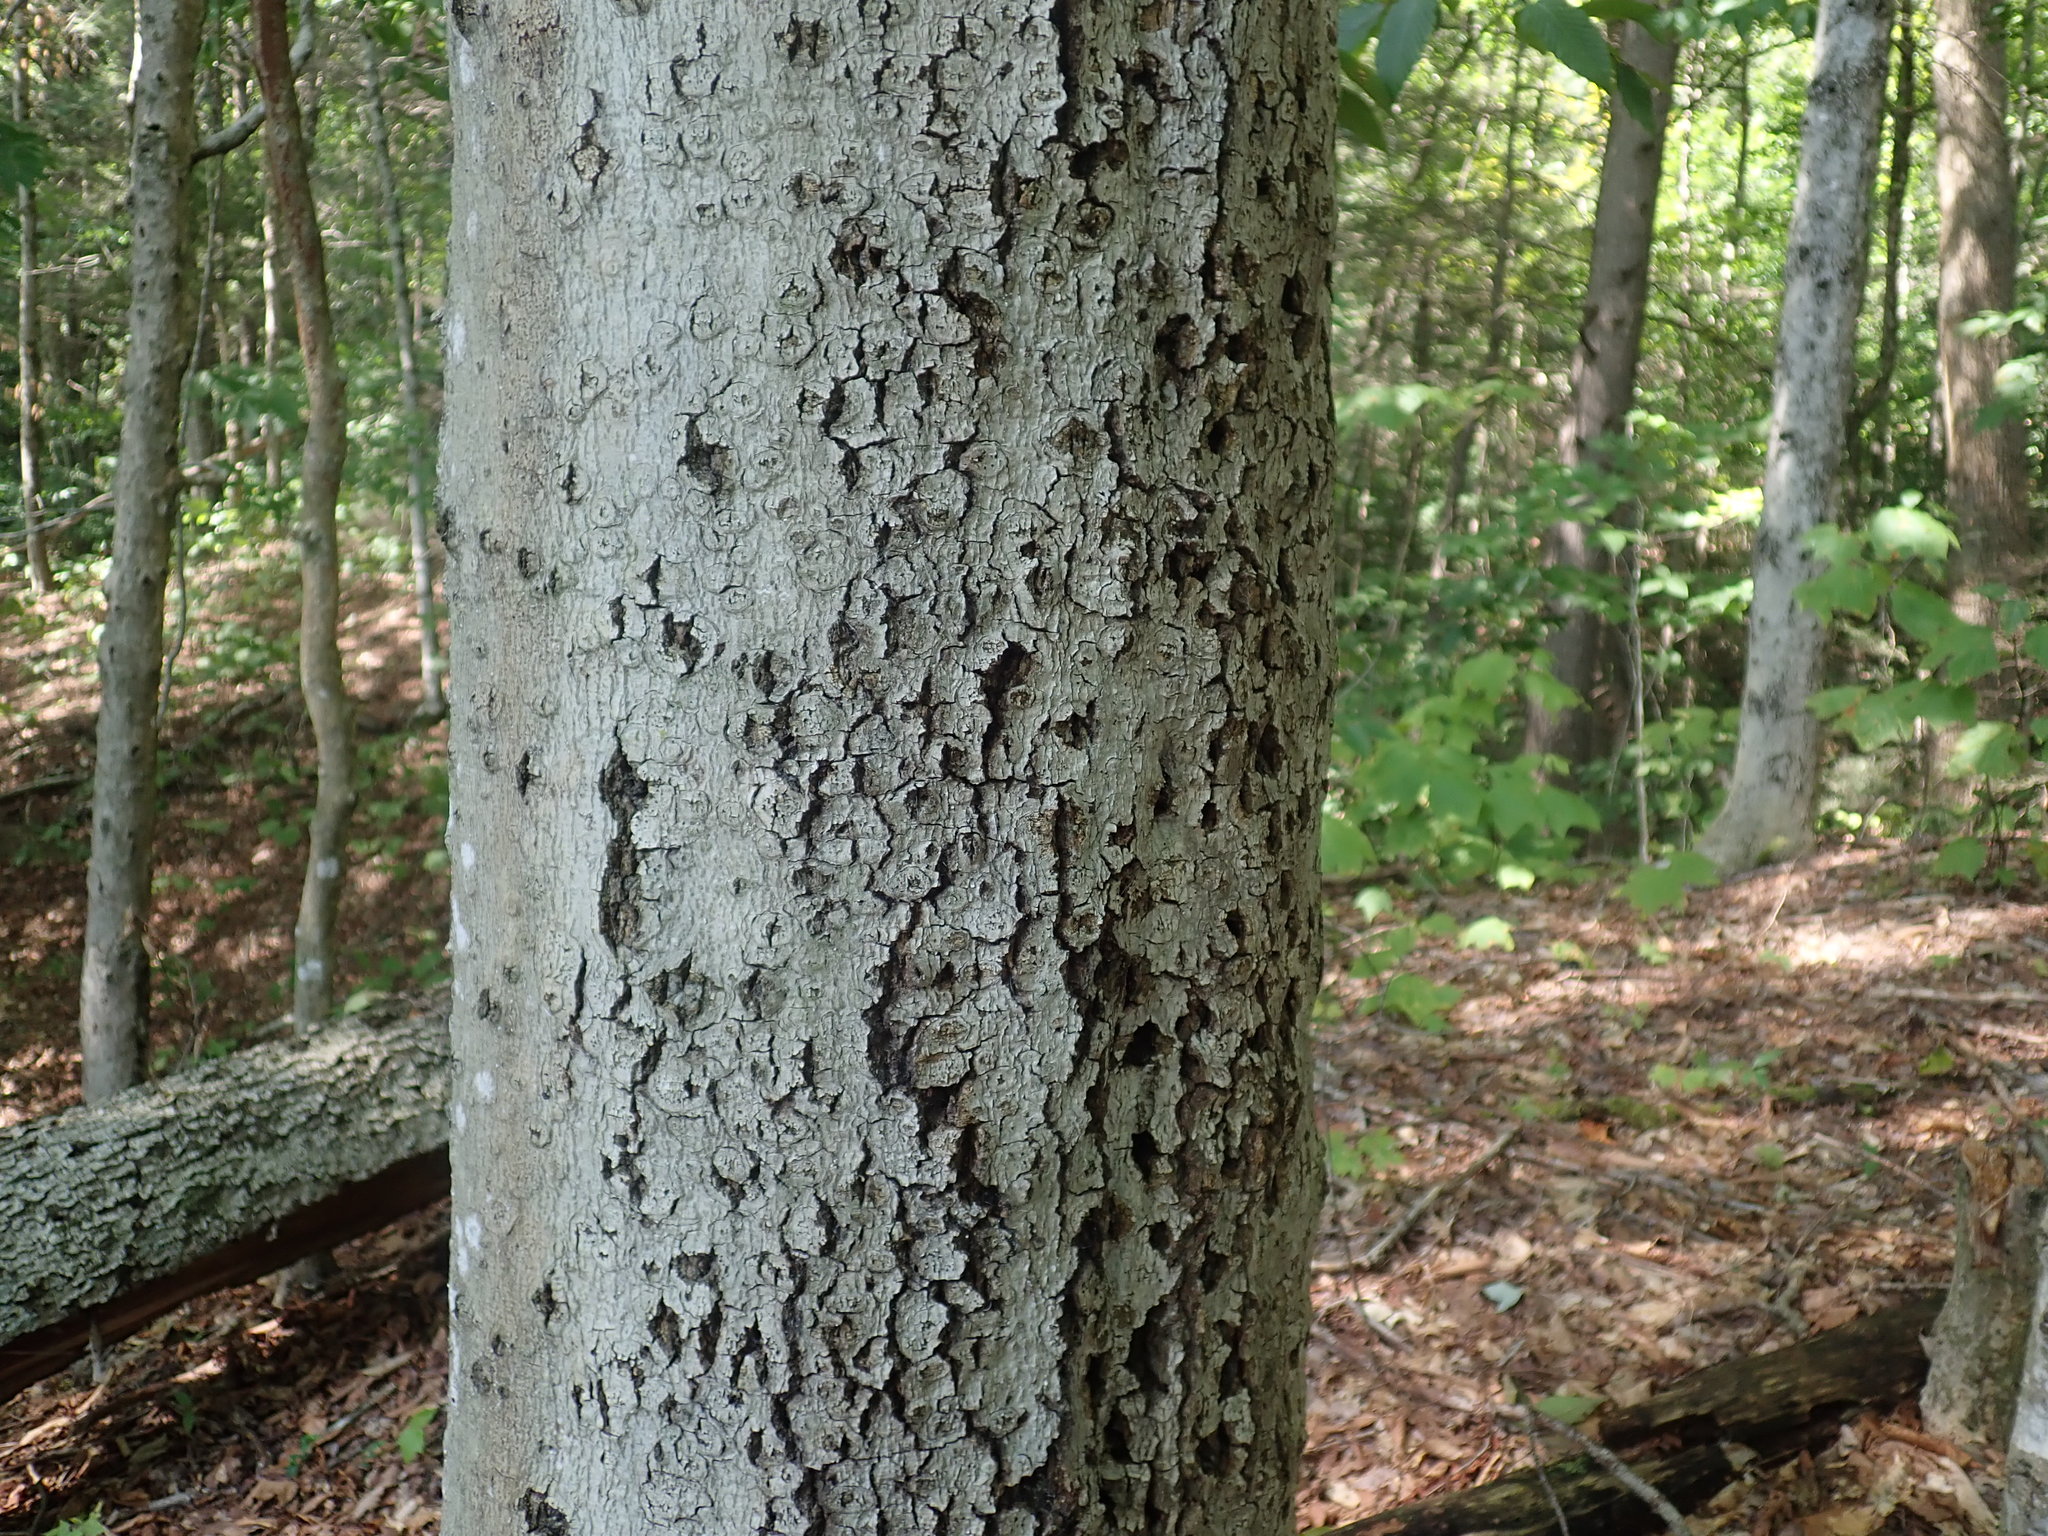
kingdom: Fungi
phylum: Ascomycota
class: Sordariomycetes
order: Hypocreales
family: Nectriaceae
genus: Neonectria
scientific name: Neonectria faginata
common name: Beech bark canker
